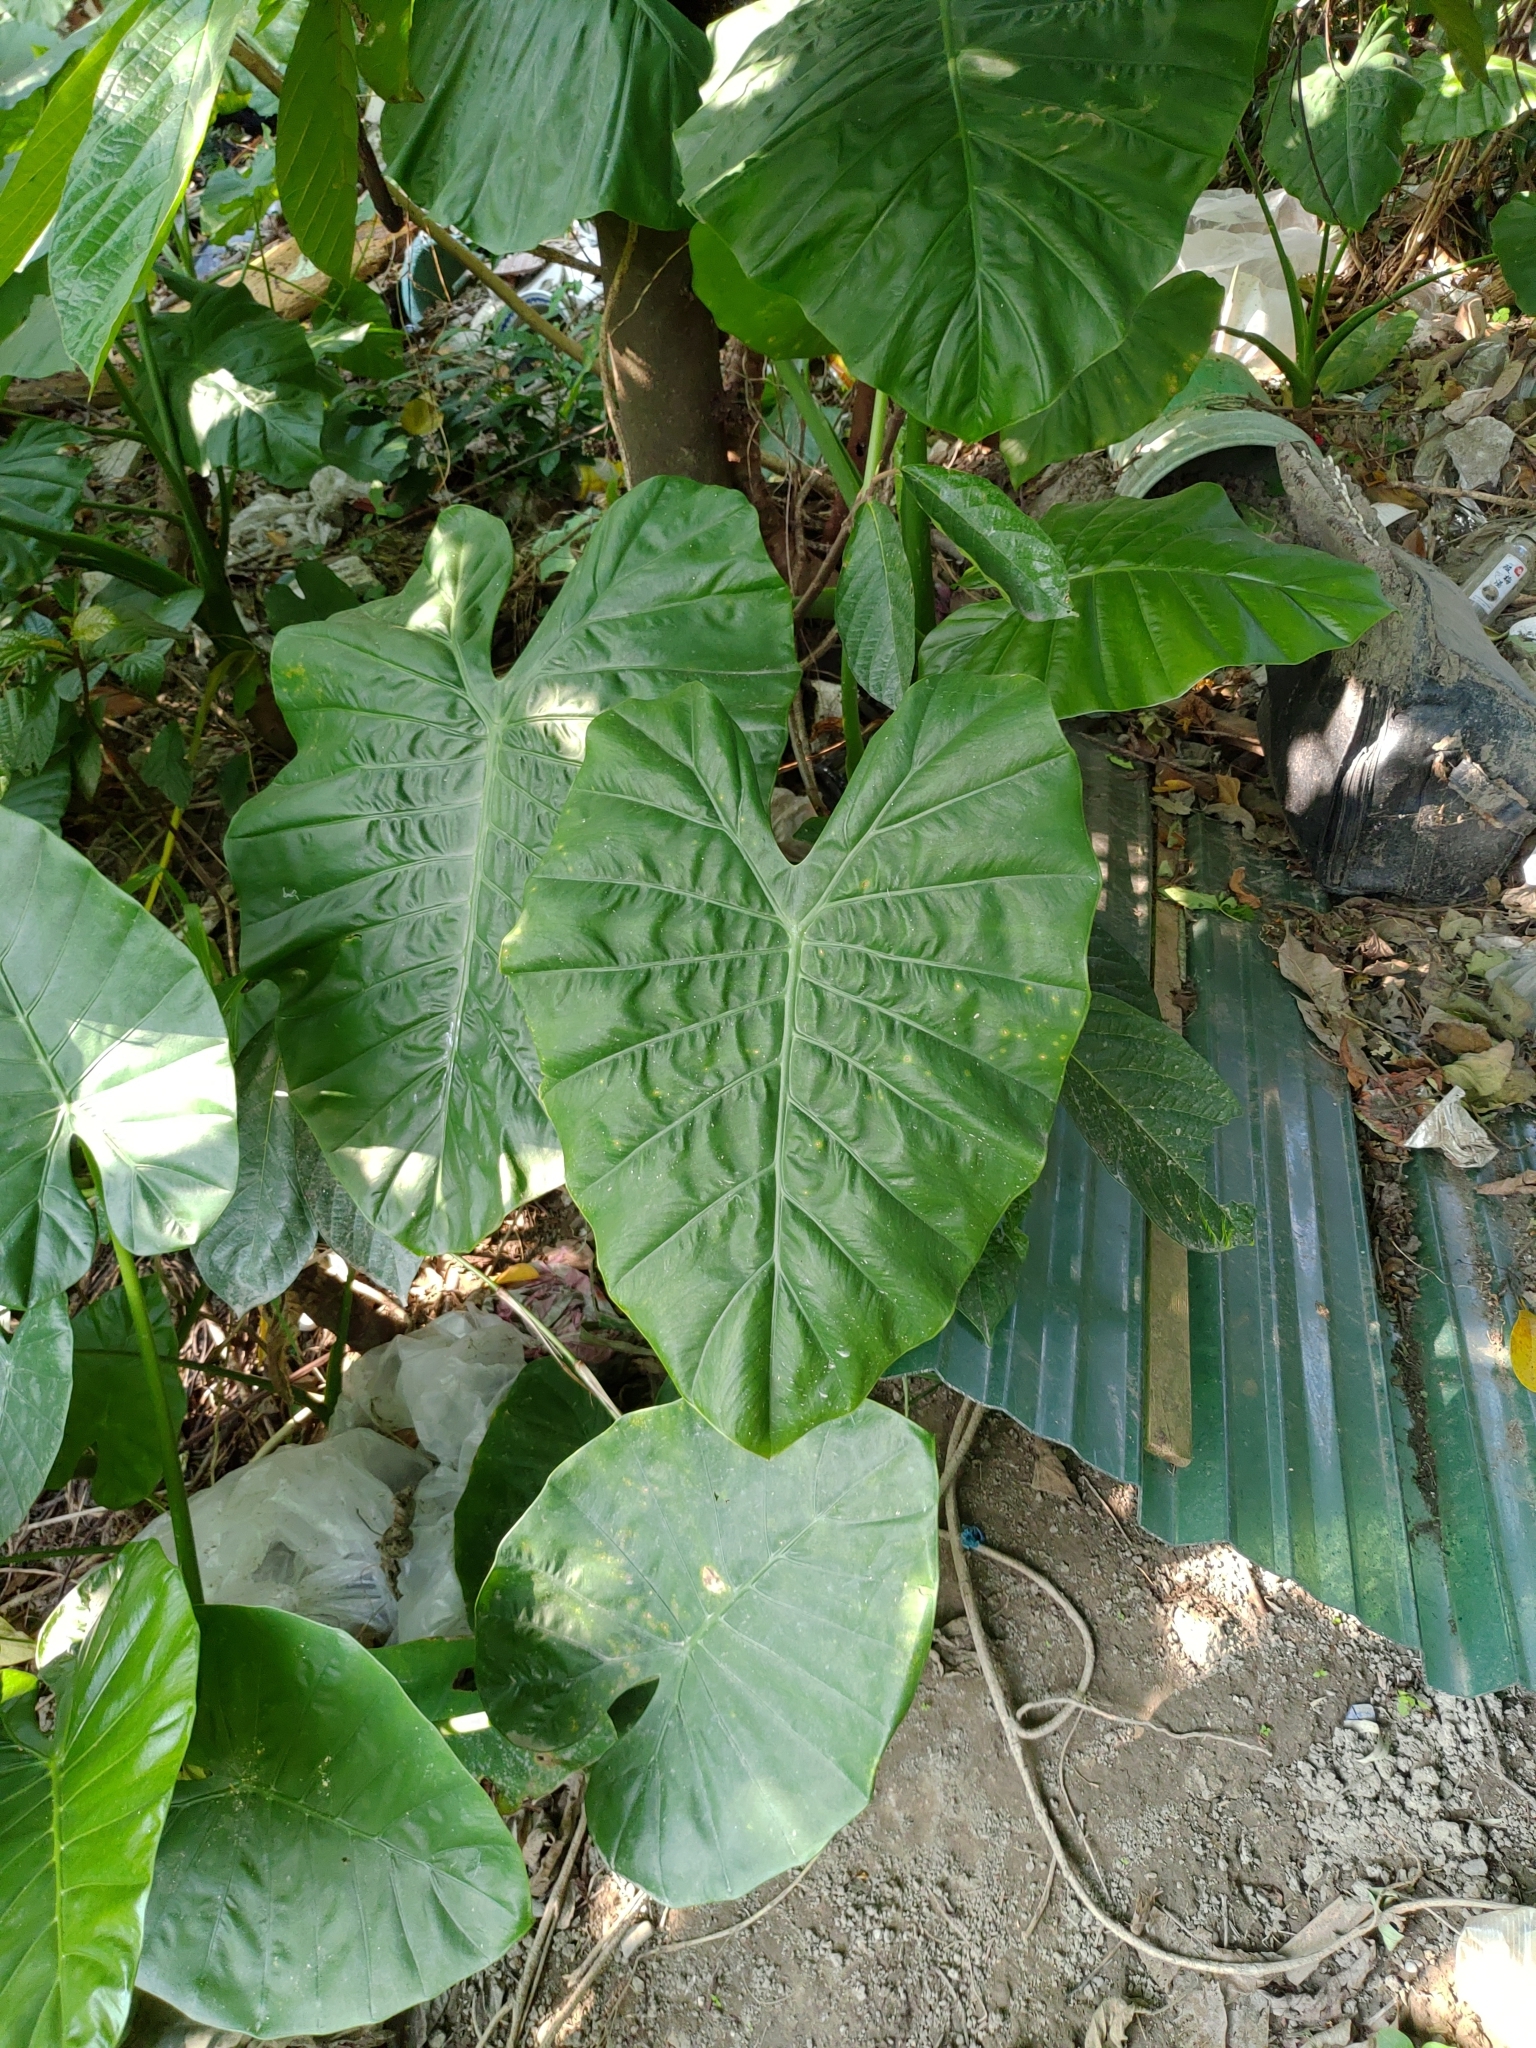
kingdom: Plantae
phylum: Tracheophyta
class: Liliopsida
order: Alismatales
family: Araceae
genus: Alocasia
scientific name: Alocasia odora
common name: Asian taro
